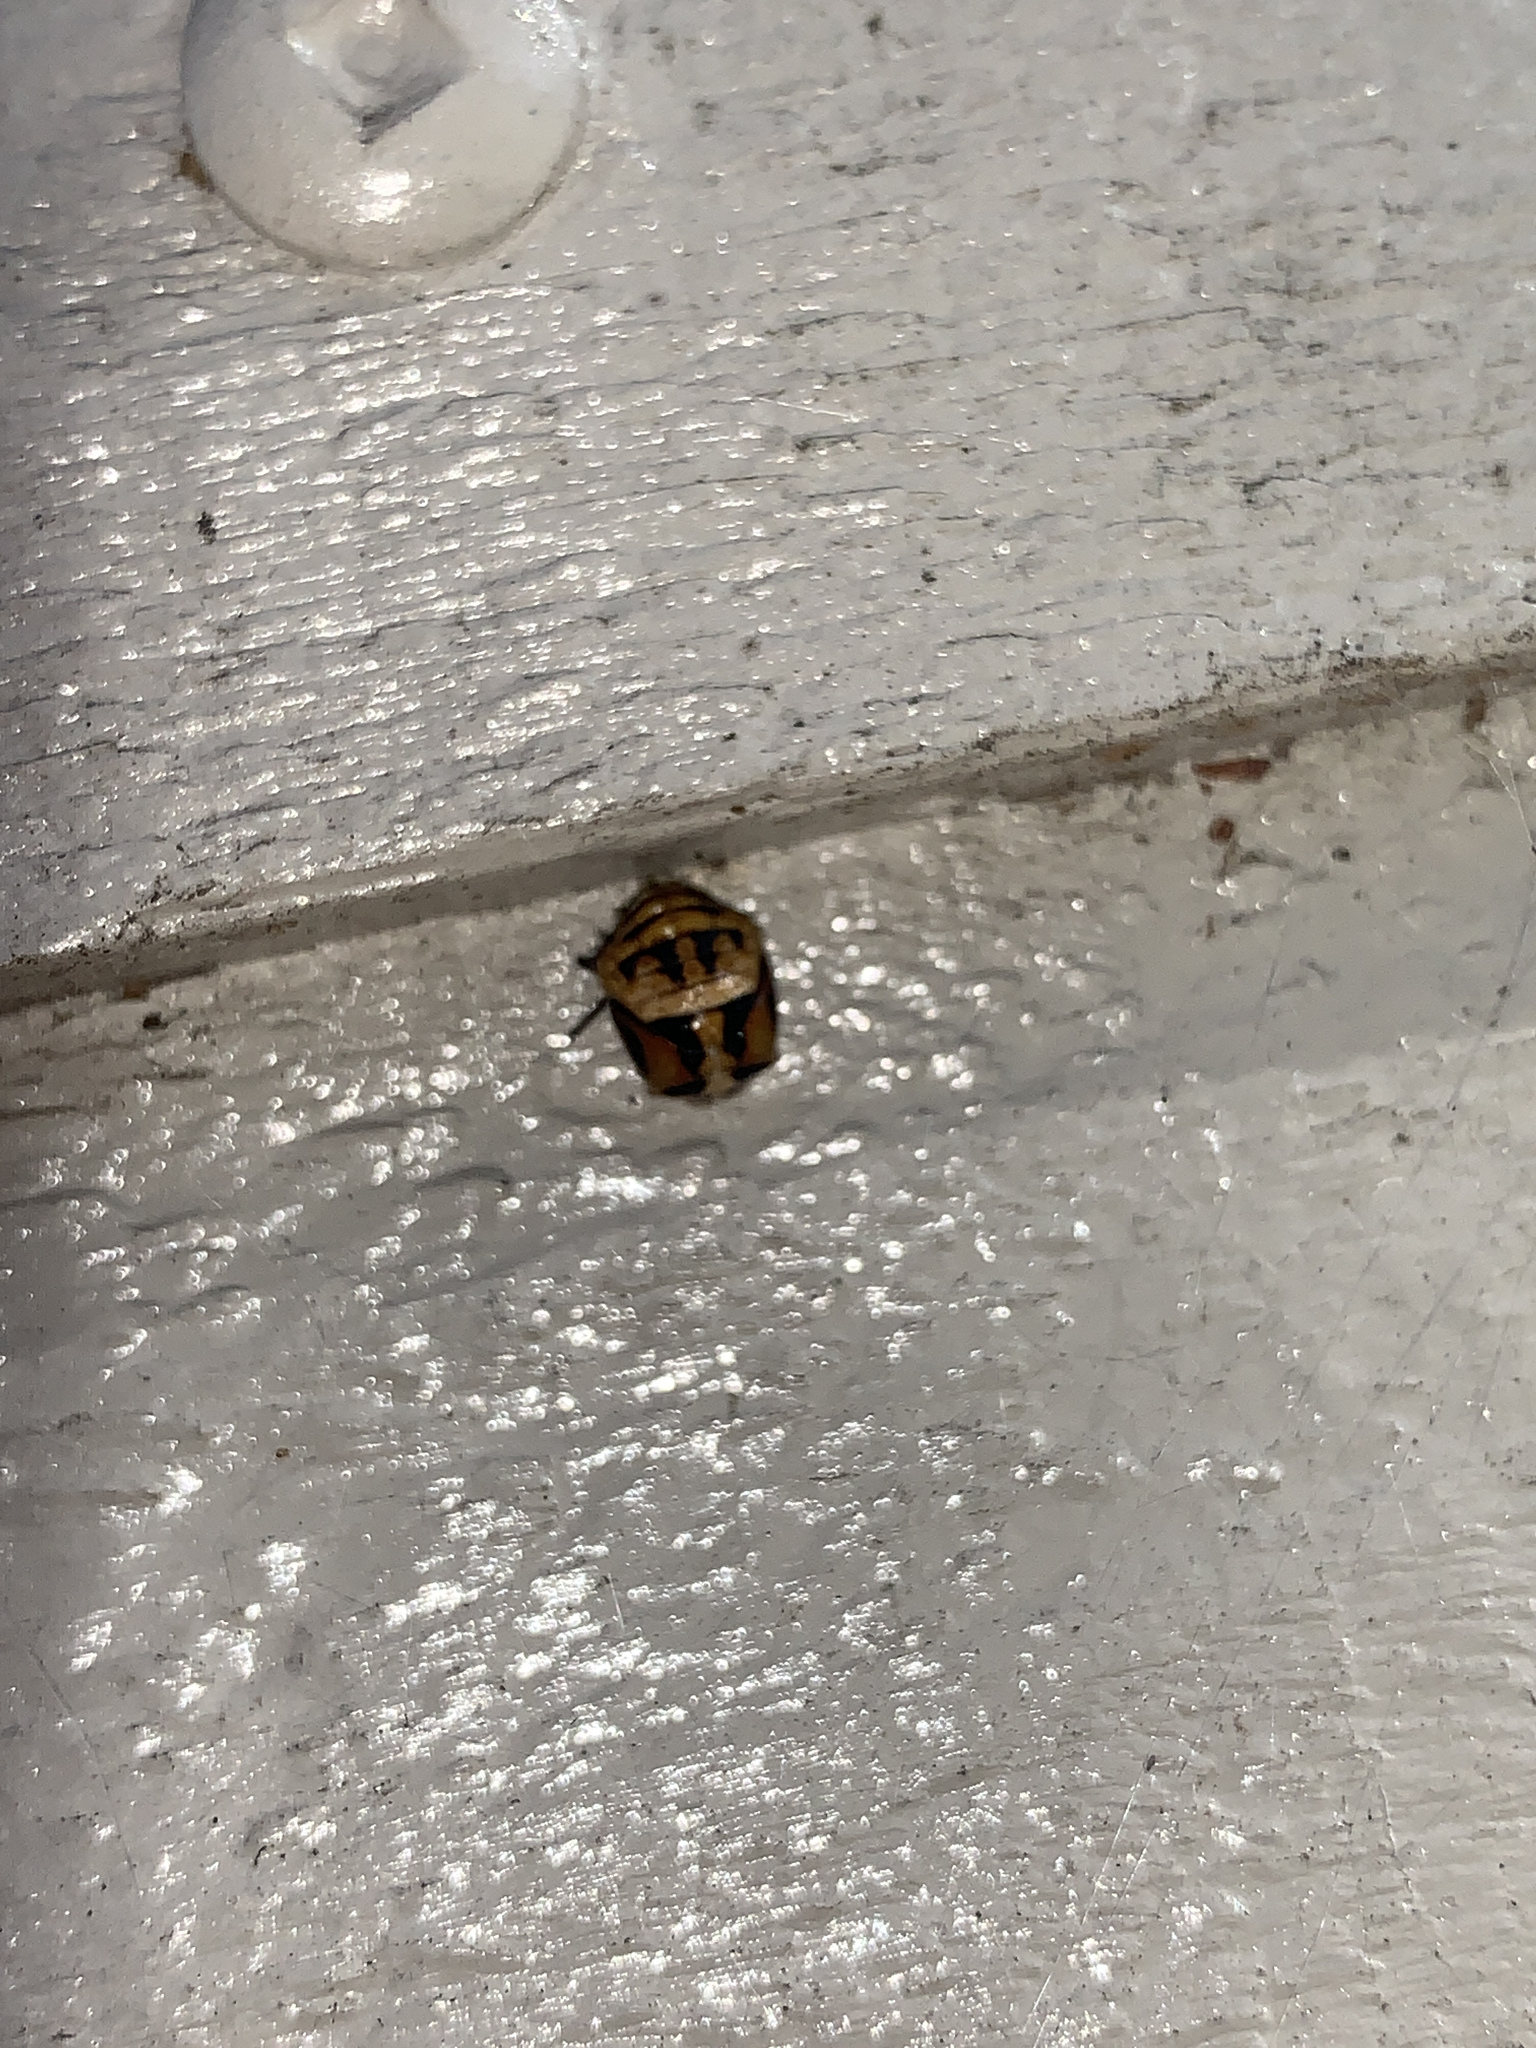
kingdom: Animalia
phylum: Arthropoda
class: Insecta
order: Coleoptera
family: Coccinellidae
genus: Harmonia
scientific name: Harmonia
